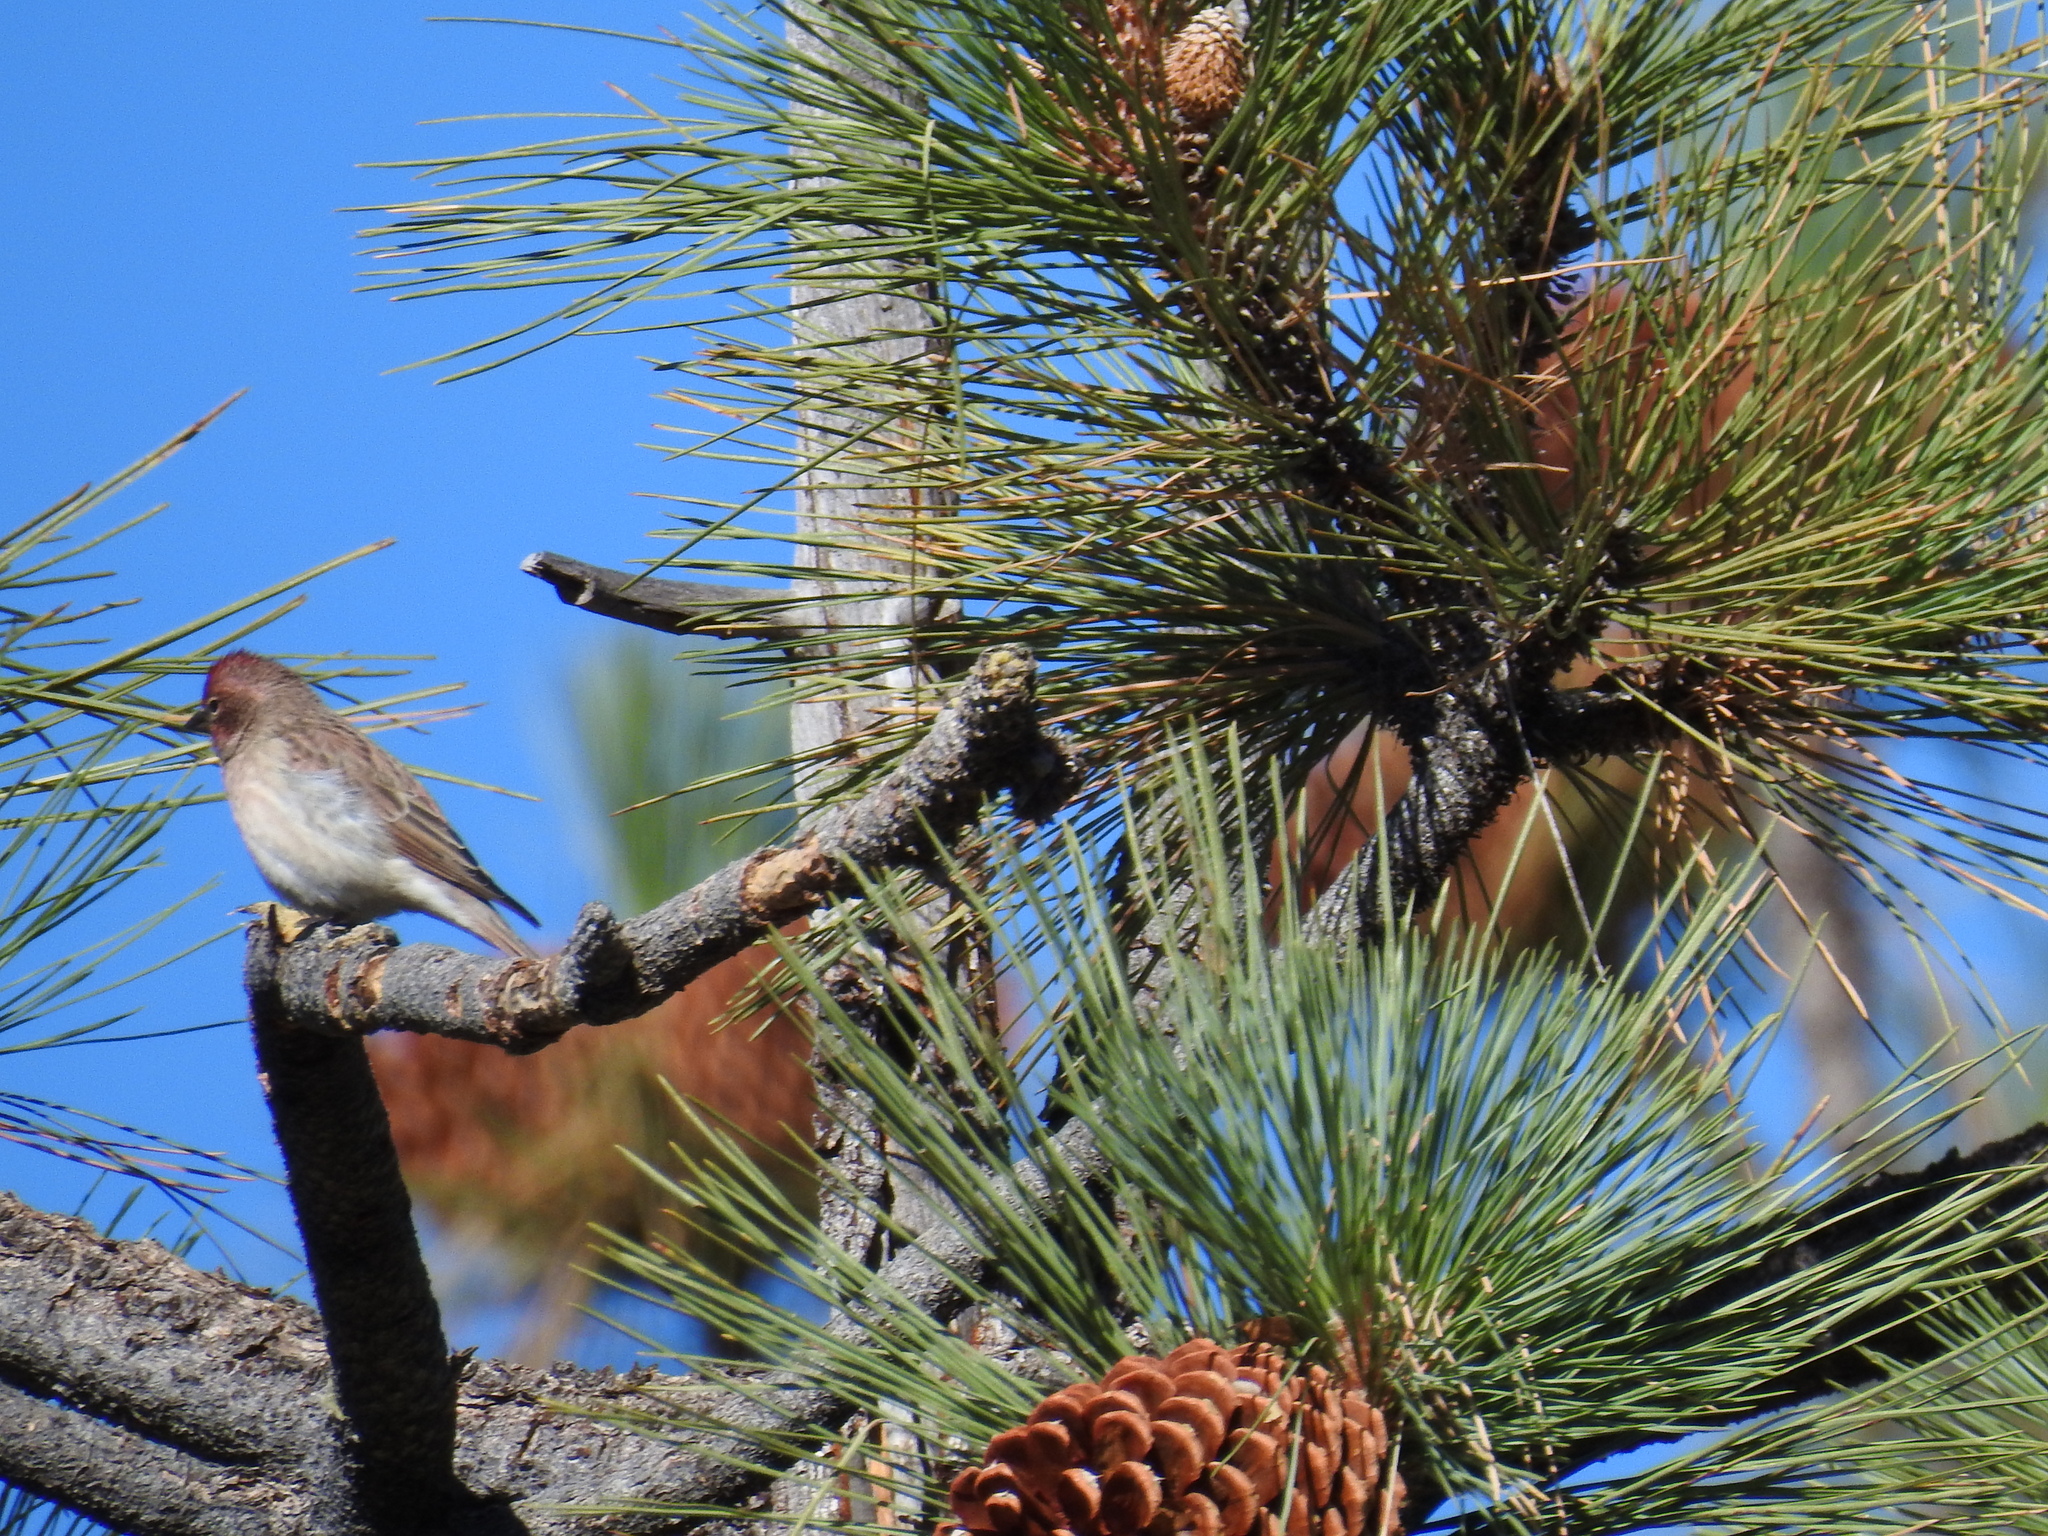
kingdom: Animalia
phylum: Chordata
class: Aves
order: Passeriformes
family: Fringillidae
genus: Haemorhous
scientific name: Haemorhous cassinii
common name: Cassin's finch
